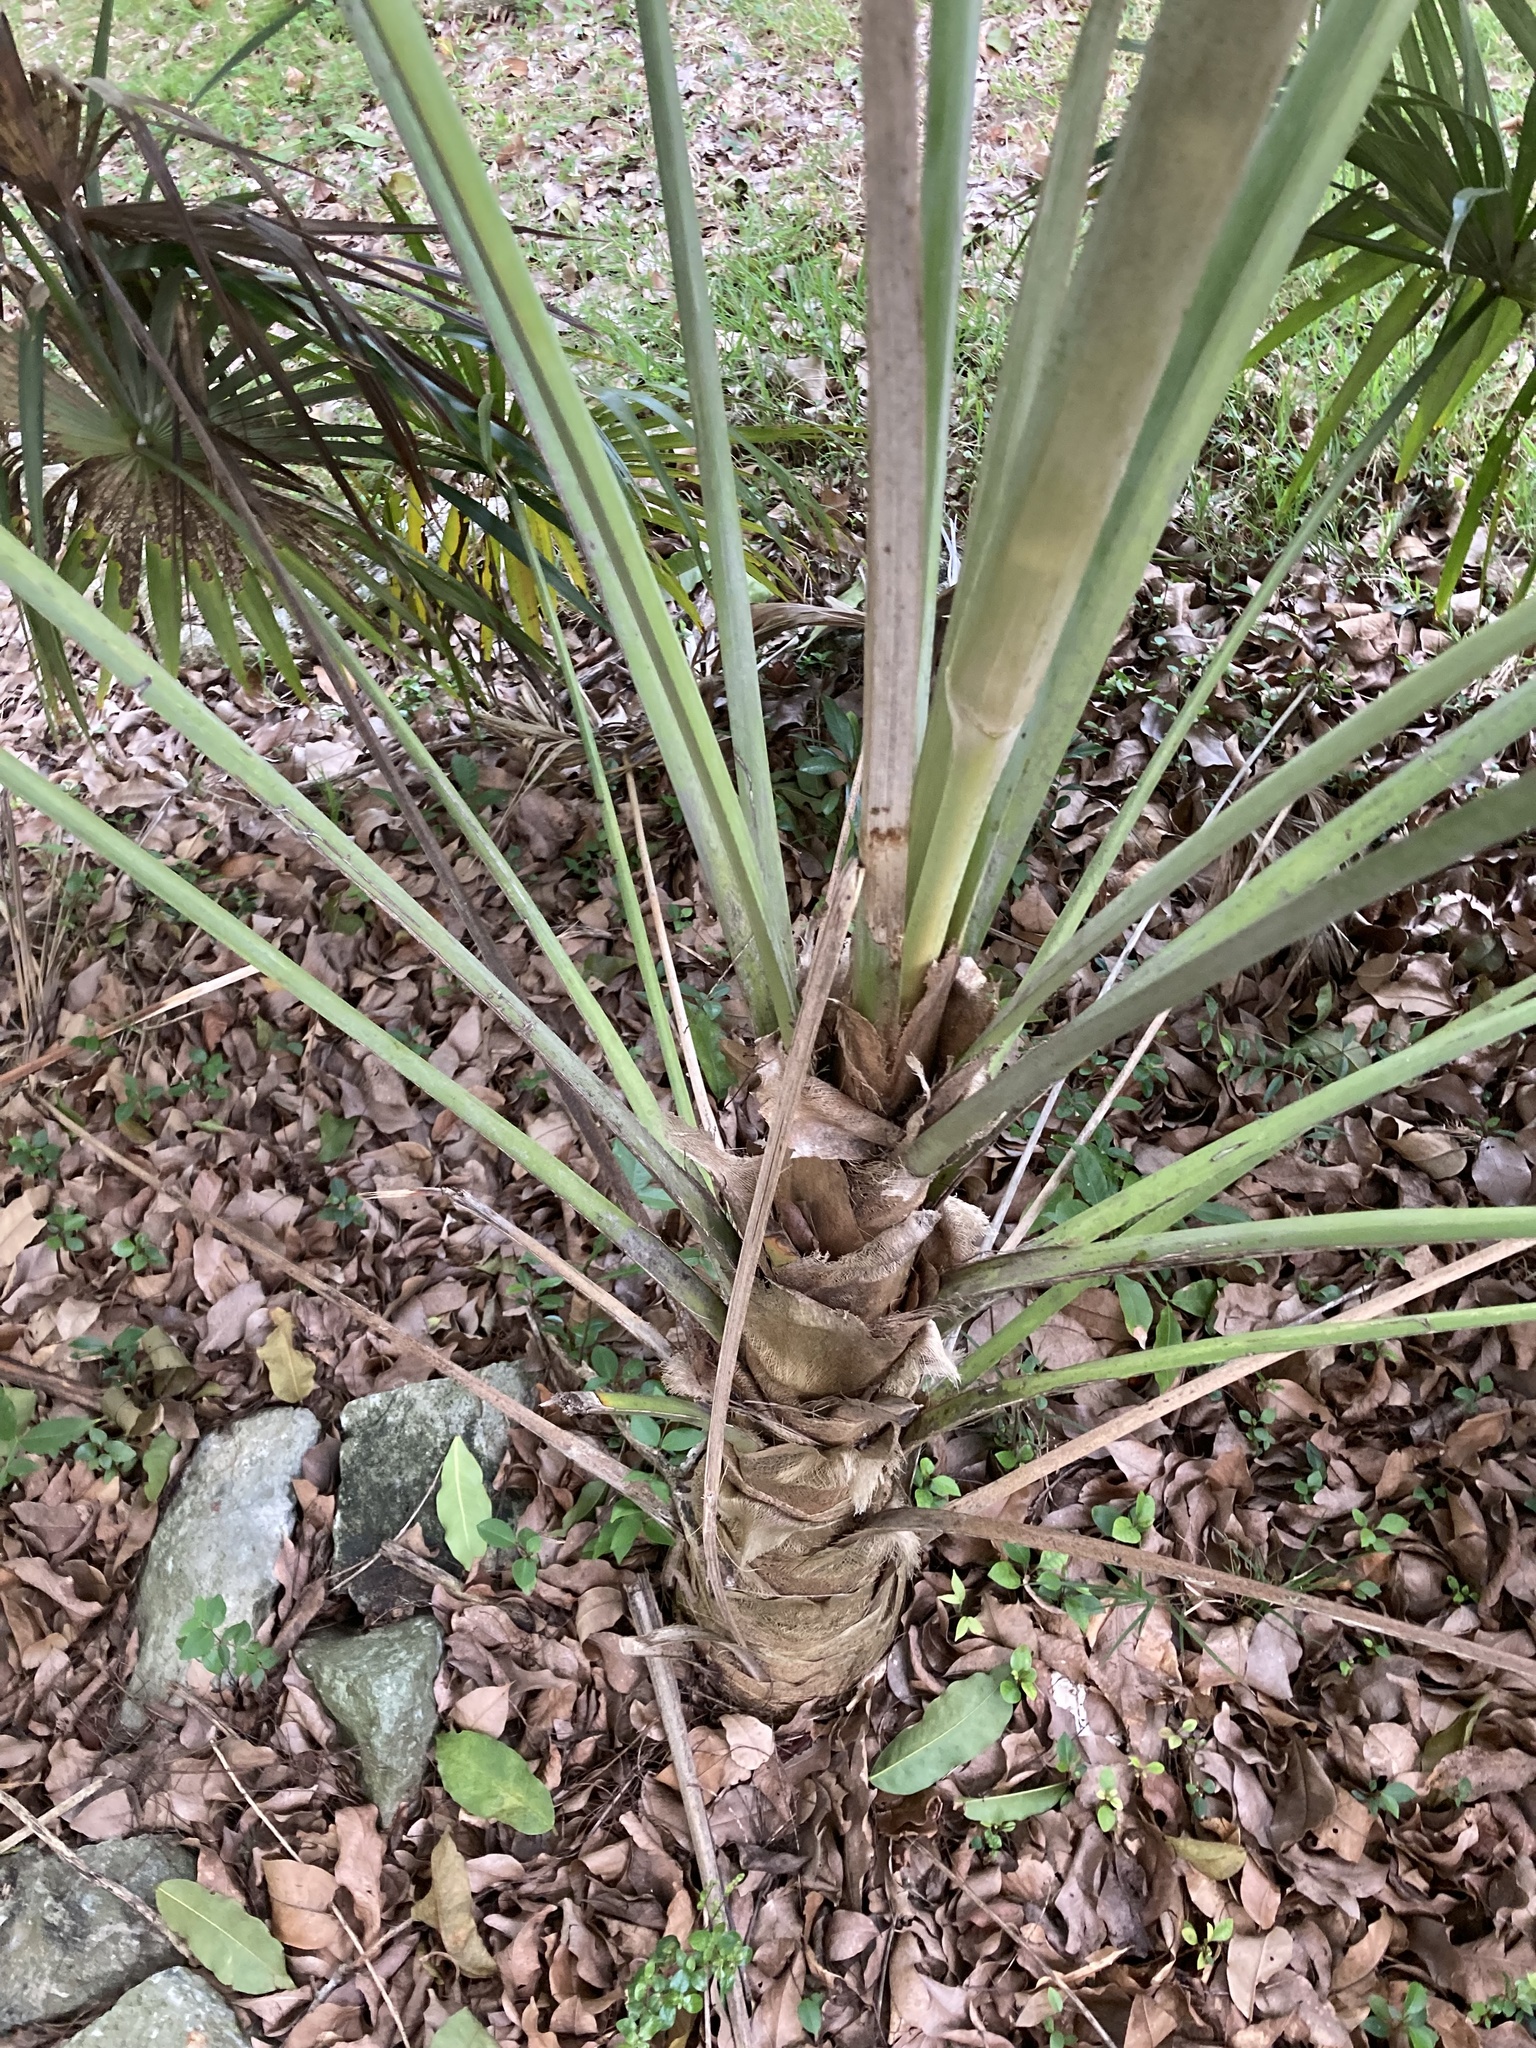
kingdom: Plantae
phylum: Tracheophyta
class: Liliopsida
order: Arecales
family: Arecaceae
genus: Coccothrinax
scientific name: Coccothrinax alta
